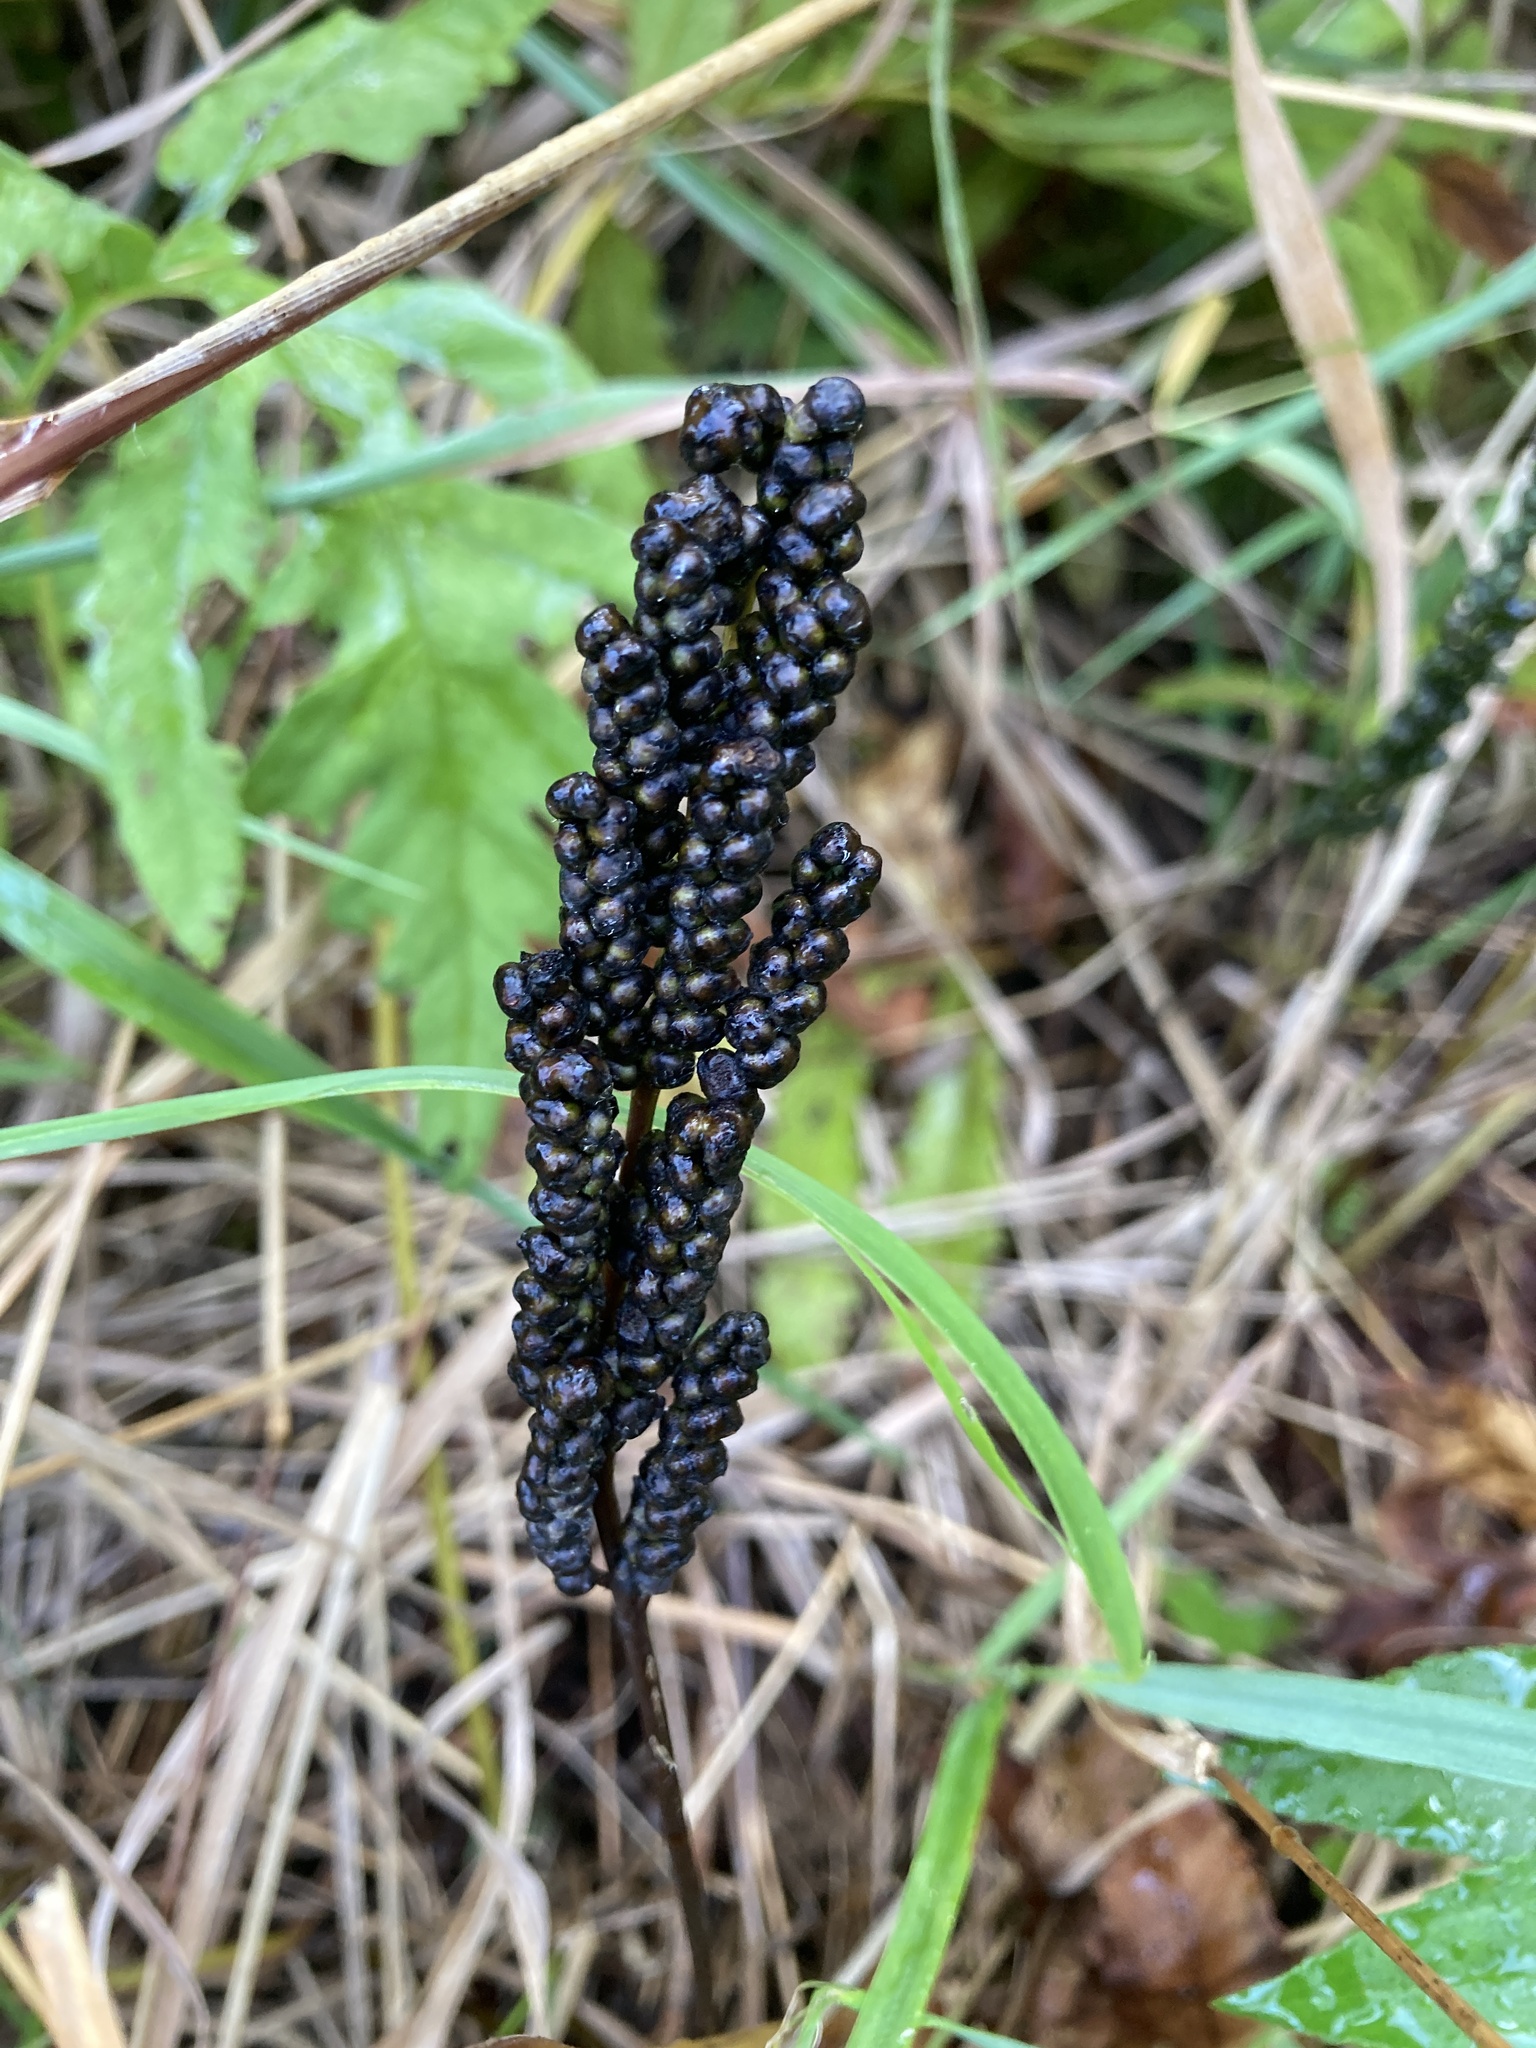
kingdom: Plantae
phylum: Tracheophyta
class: Polypodiopsida
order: Polypodiales
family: Onocleaceae
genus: Onoclea
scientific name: Onoclea sensibilis
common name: Sensitive fern
